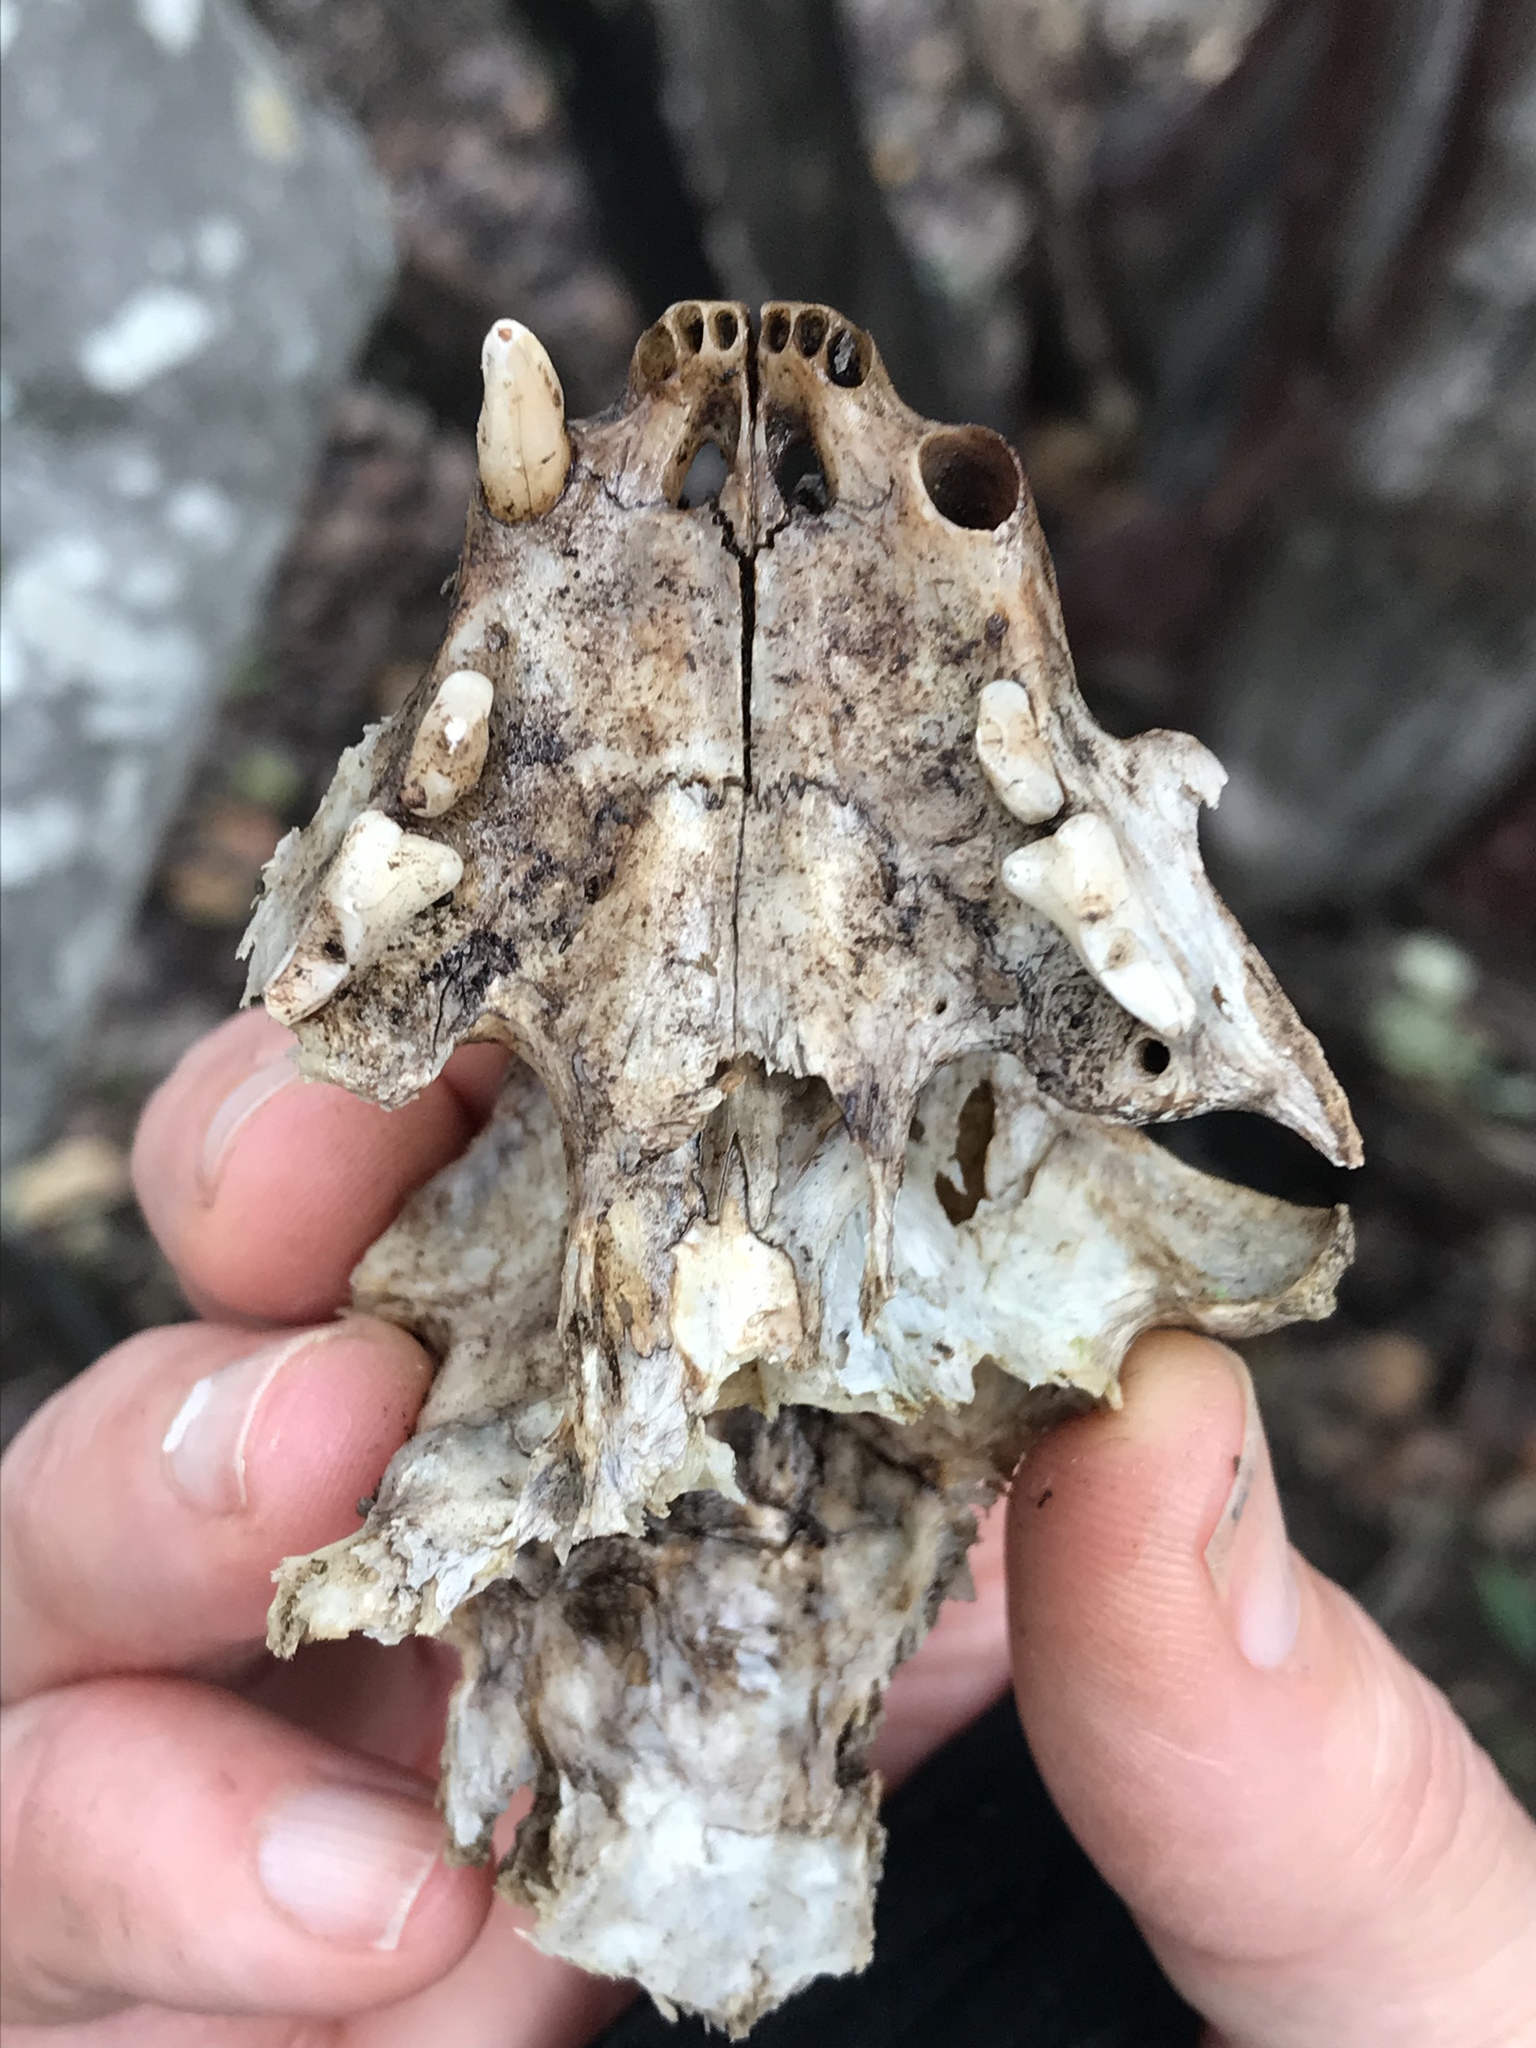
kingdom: Animalia
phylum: Chordata
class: Mammalia
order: Carnivora
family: Felidae
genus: Felis
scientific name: Felis catus
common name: Domestic cat
